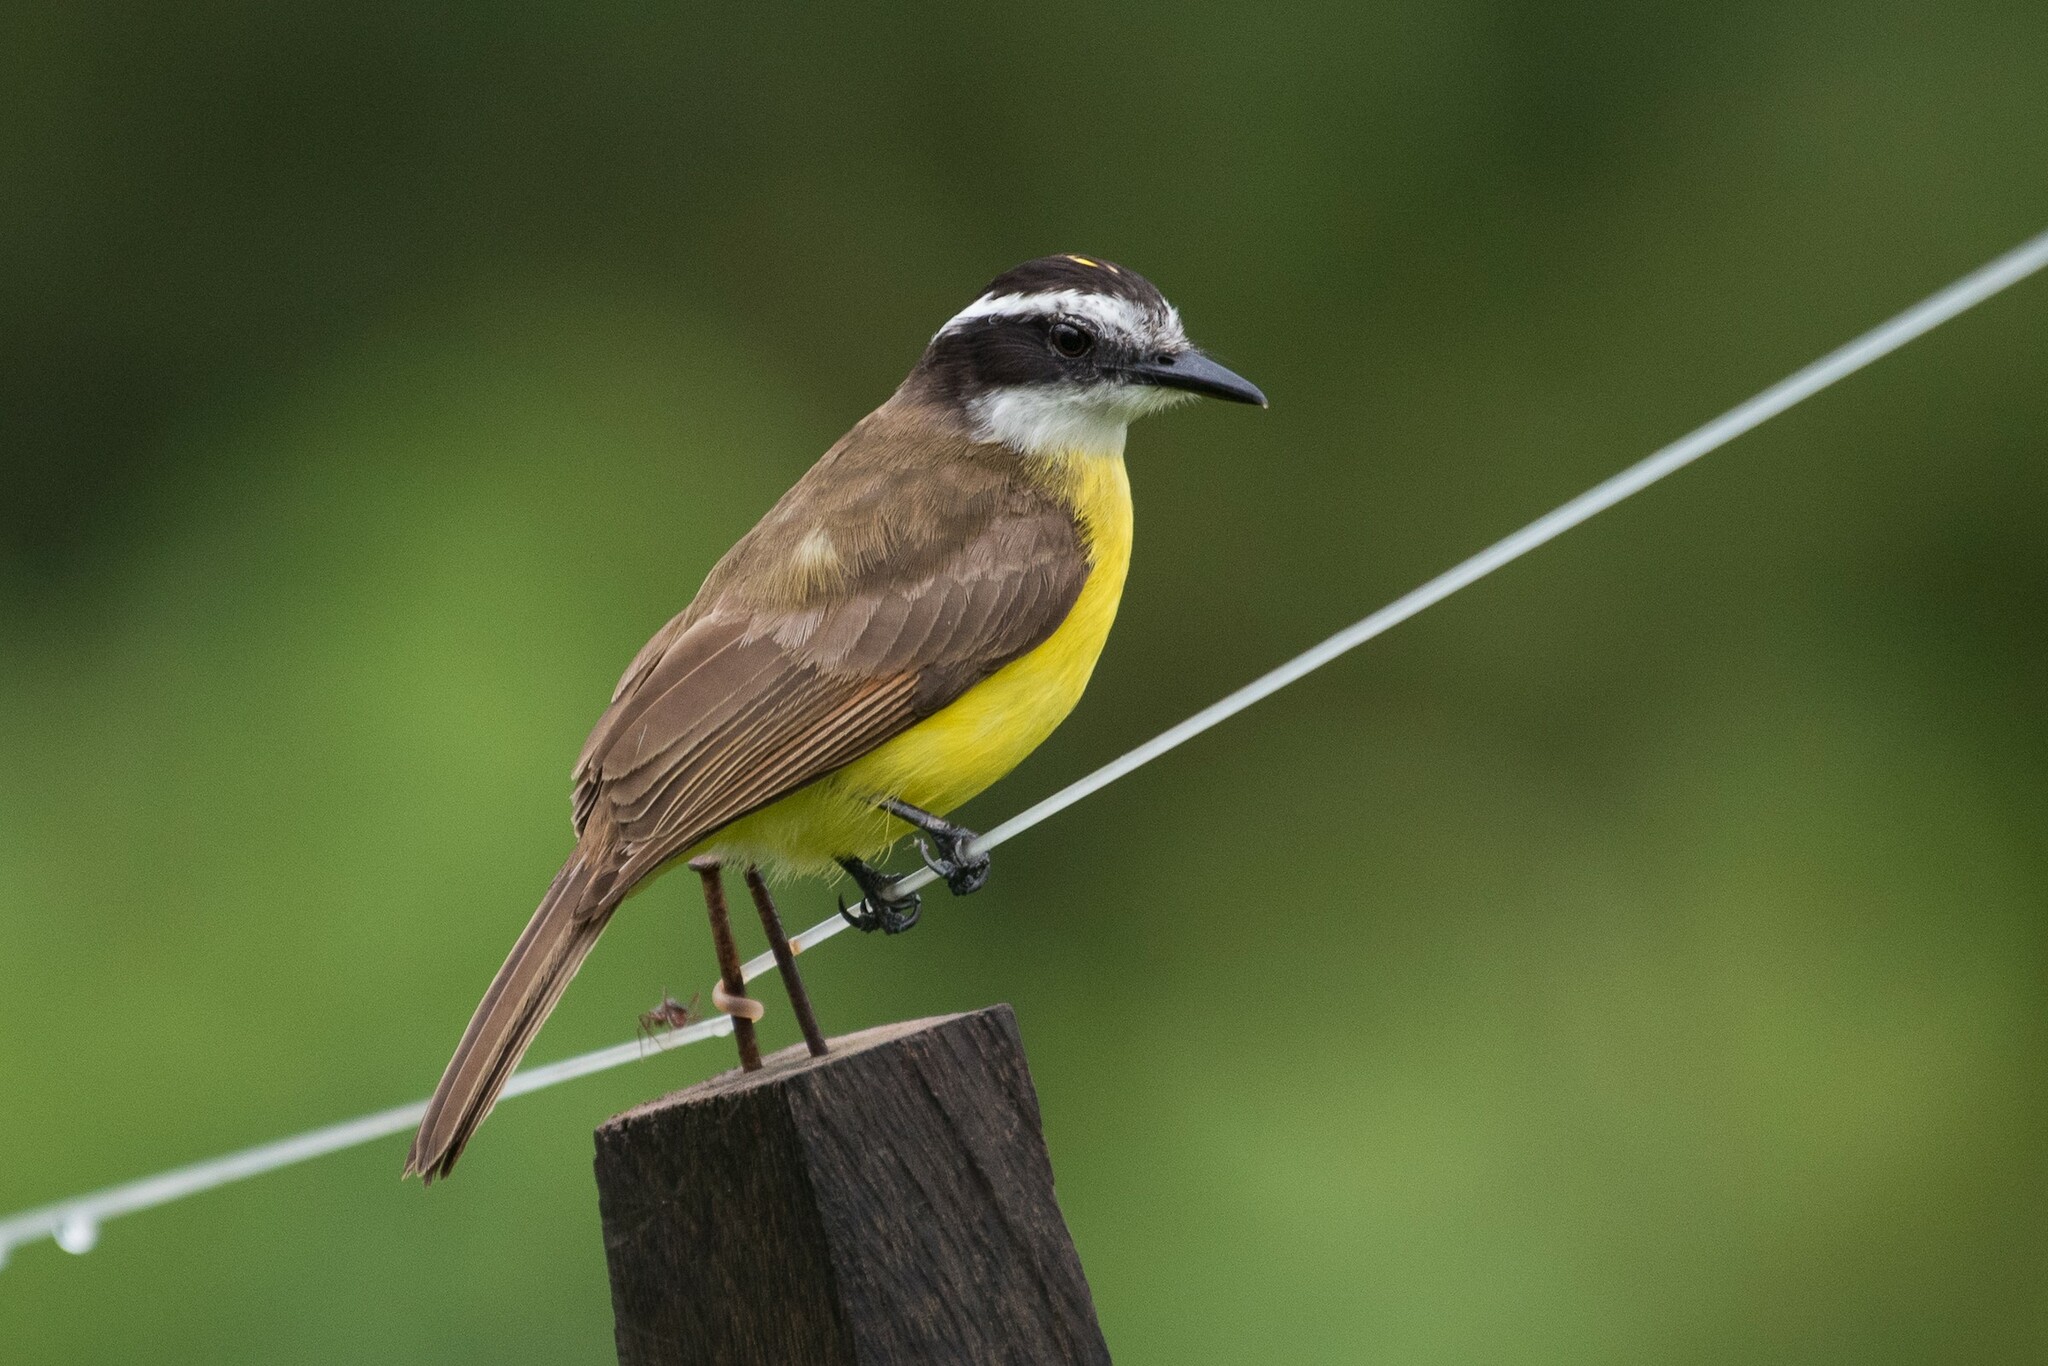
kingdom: Animalia
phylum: Chordata
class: Aves
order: Passeriformes
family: Tyrannidae
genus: Pitangus
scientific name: Pitangus lictor
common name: Lesser kiskadee
